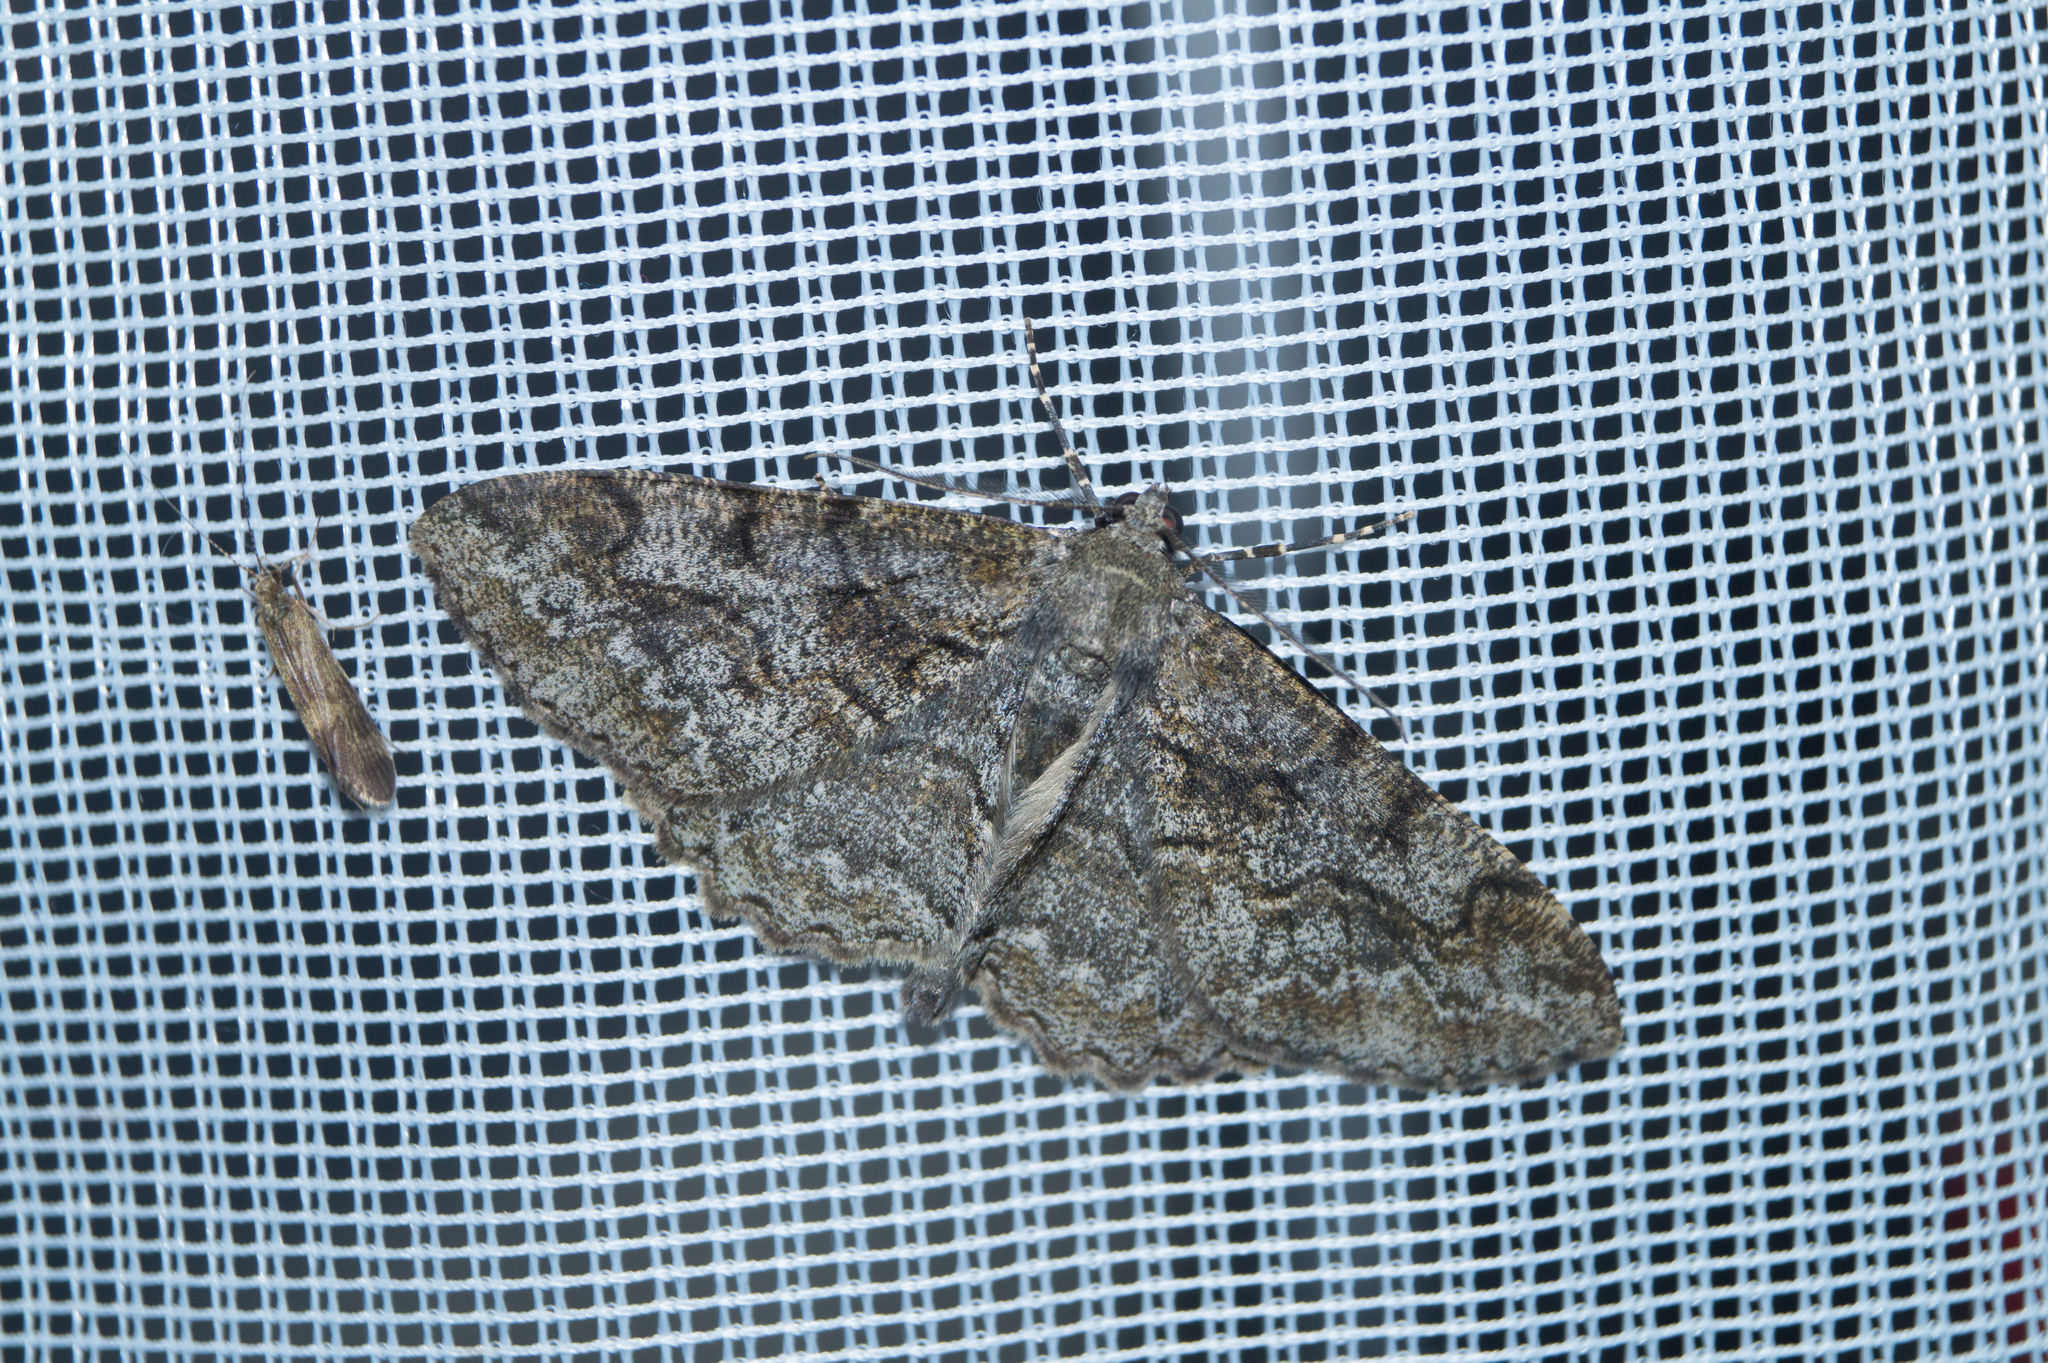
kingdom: Animalia
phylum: Arthropoda
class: Insecta
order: Lepidoptera
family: Geometridae
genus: Alcis
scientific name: Alcis repandata
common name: Mottled beauty
